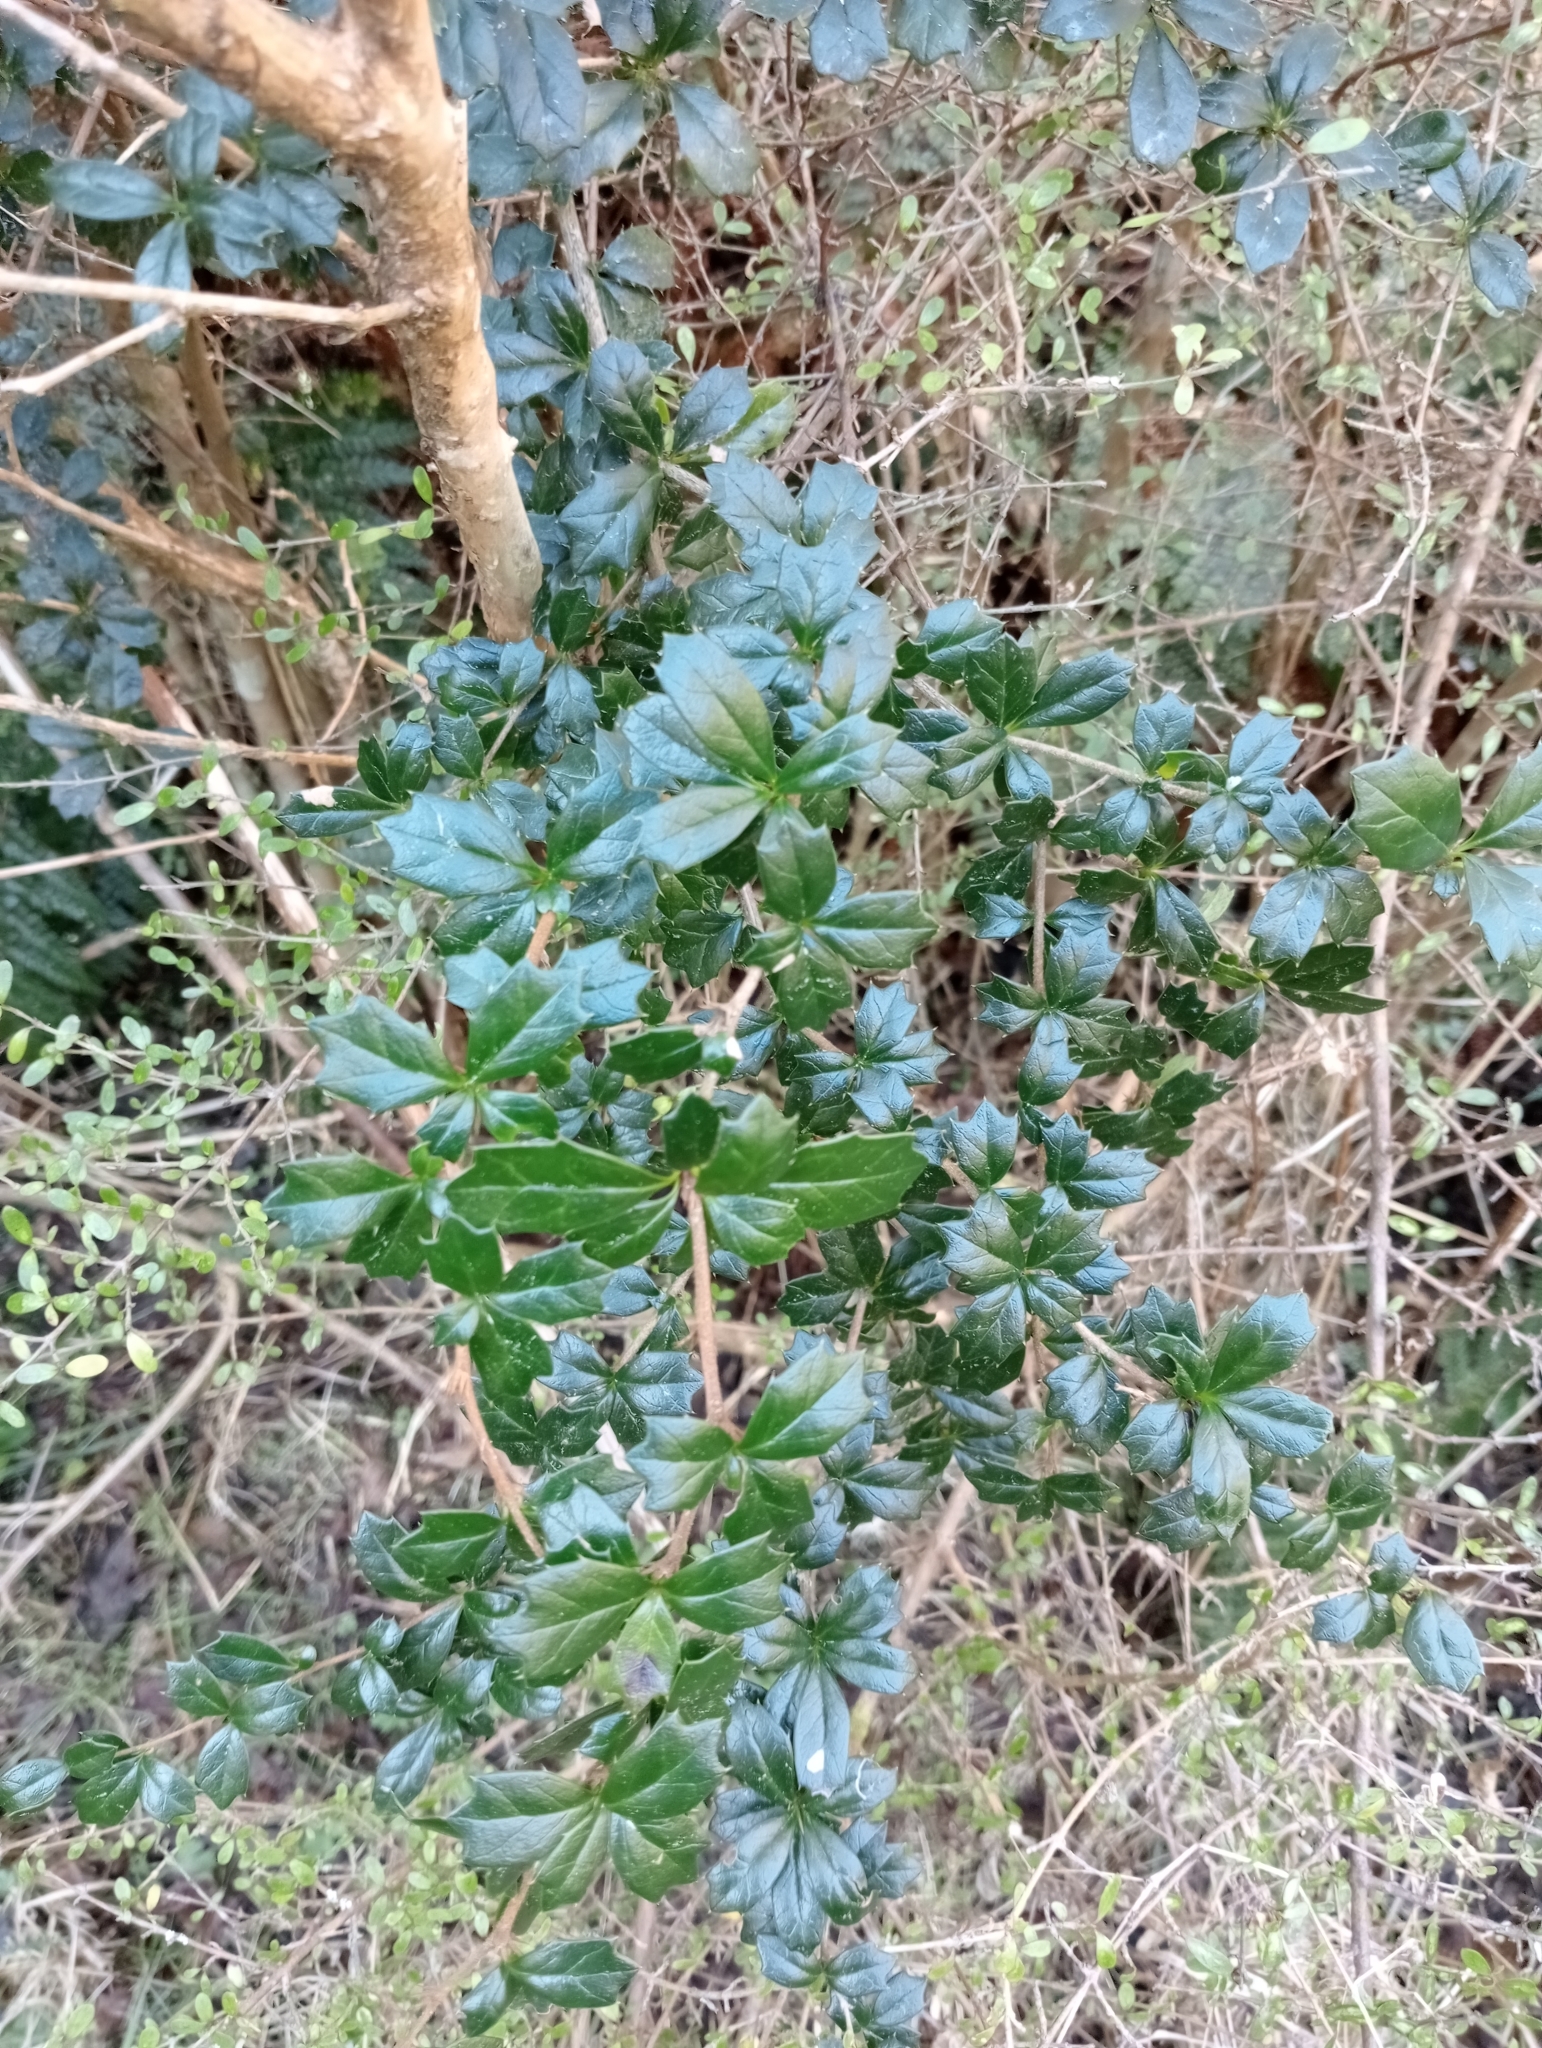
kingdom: Plantae
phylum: Tracheophyta
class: Magnoliopsida
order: Ranunculales
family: Berberidaceae
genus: Berberis
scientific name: Berberis darwinii
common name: Darwin's barberry
